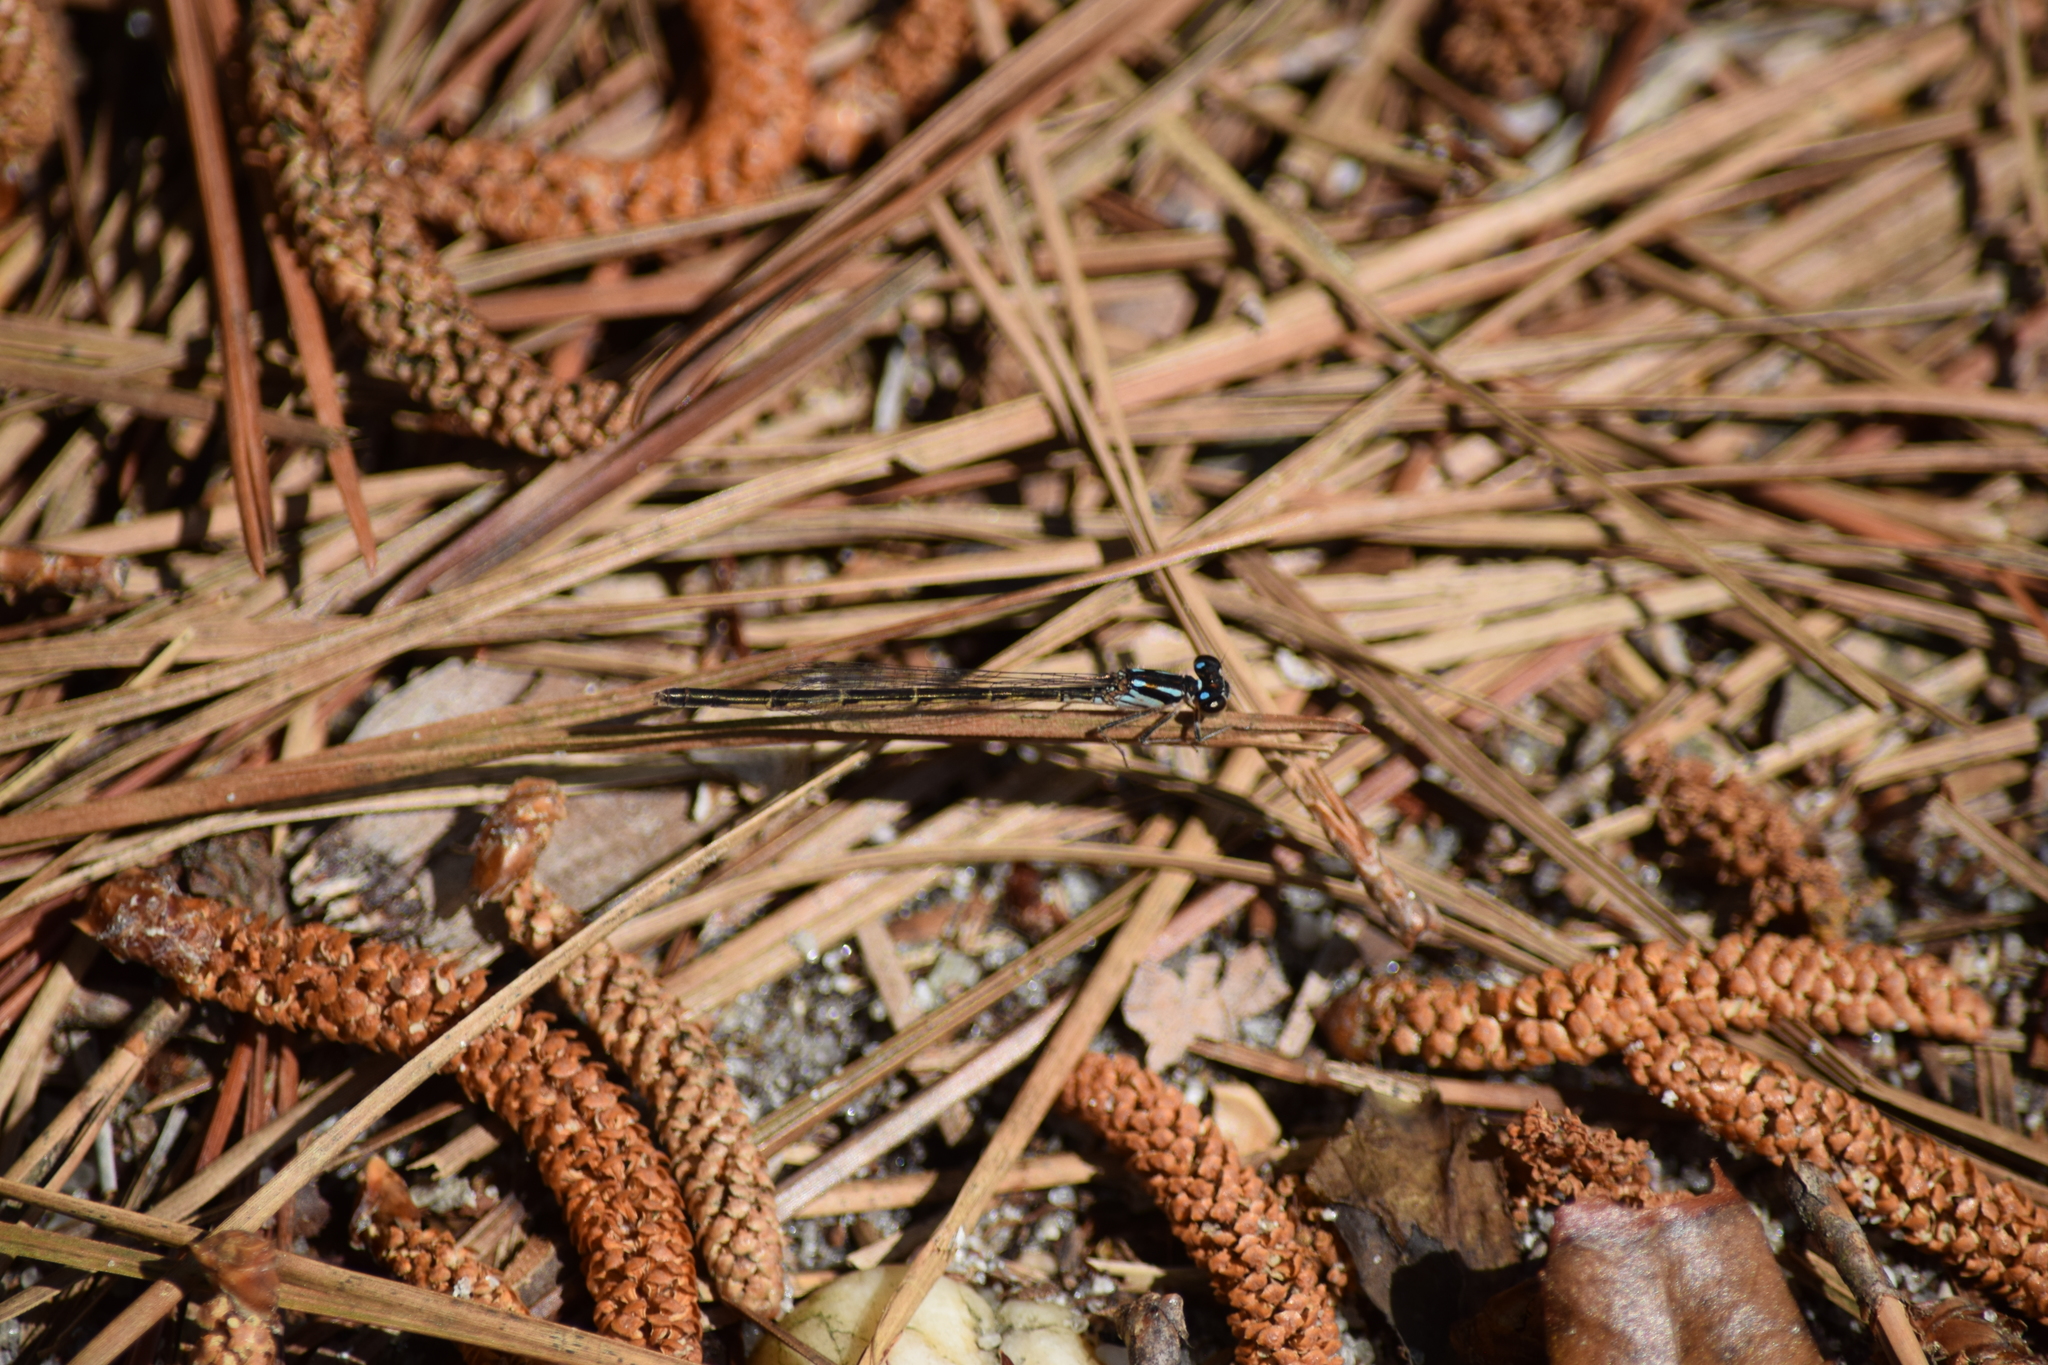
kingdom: Animalia
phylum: Arthropoda
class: Insecta
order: Odonata
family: Coenagrionidae
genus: Ischnura
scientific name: Ischnura posita
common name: Fragile forktail
